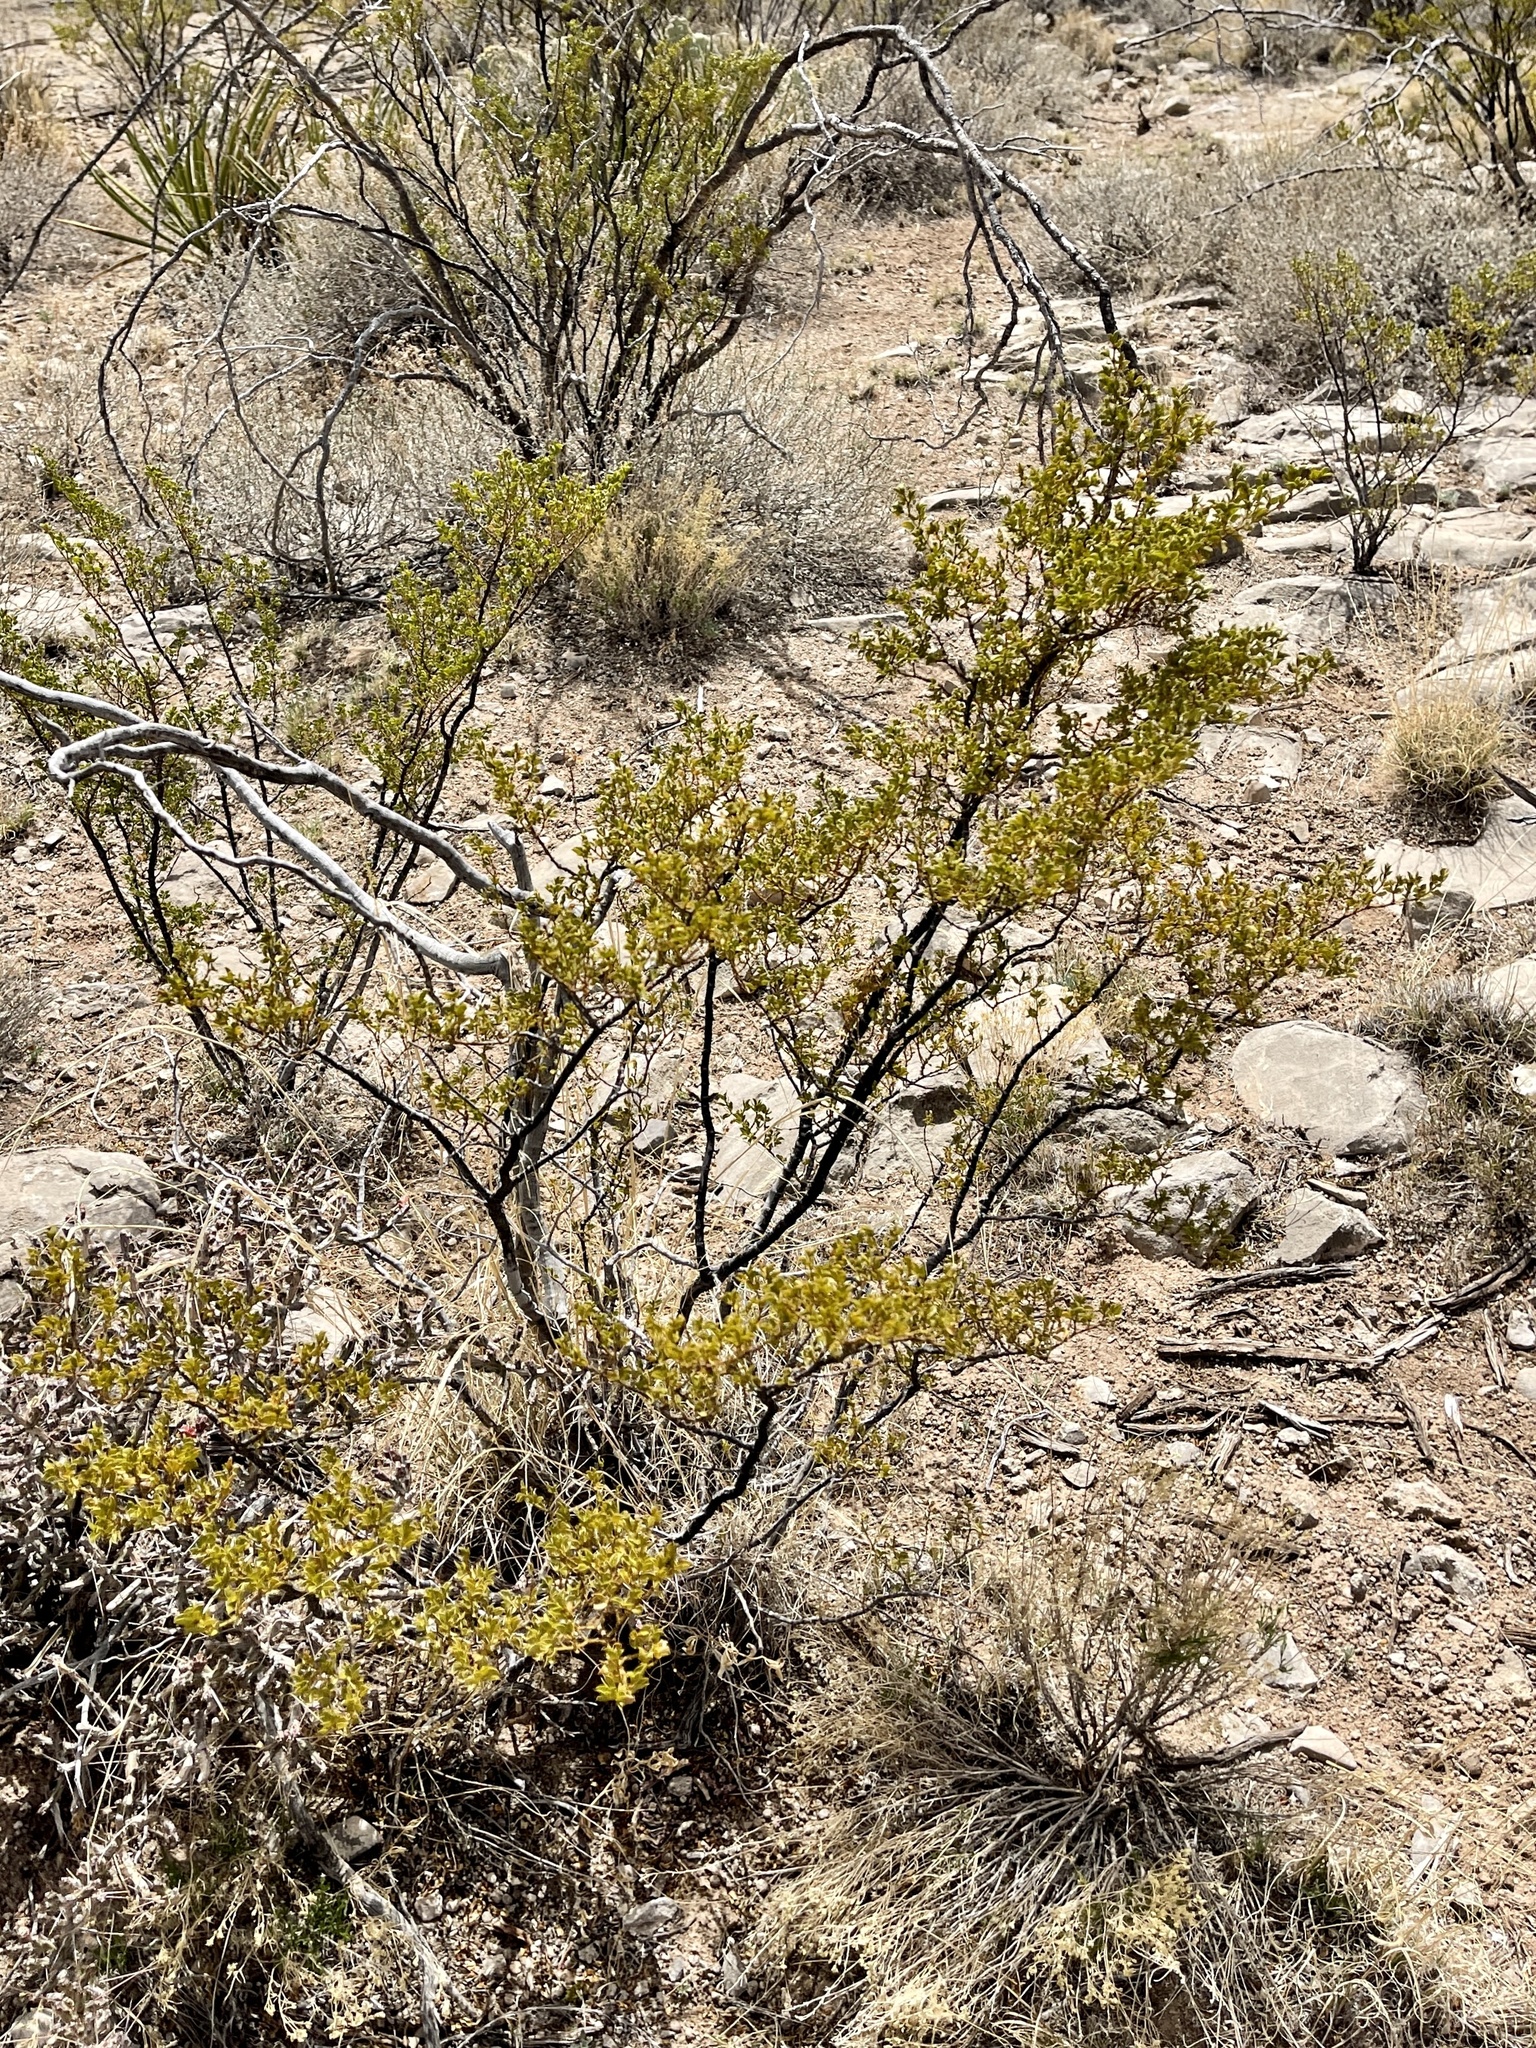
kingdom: Plantae
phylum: Tracheophyta
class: Magnoliopsida
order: Zygophyllales
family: Zygophyllaceae
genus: Larrea
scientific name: Larrea tridentata
